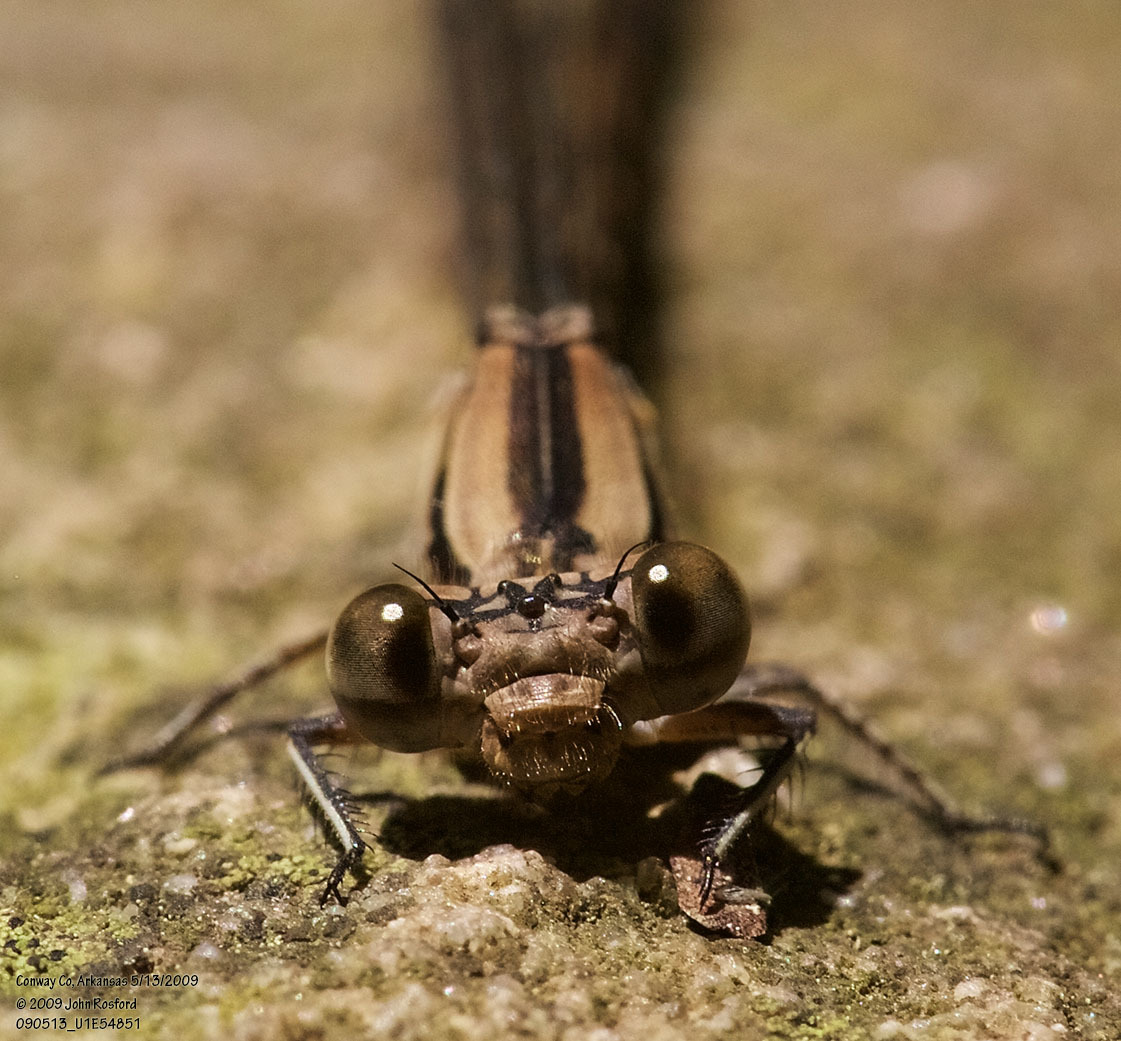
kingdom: Animalia
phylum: Arthropoda
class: Insecta
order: Odonata
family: Coenagrionidae
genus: Argia
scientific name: Argia funebris
